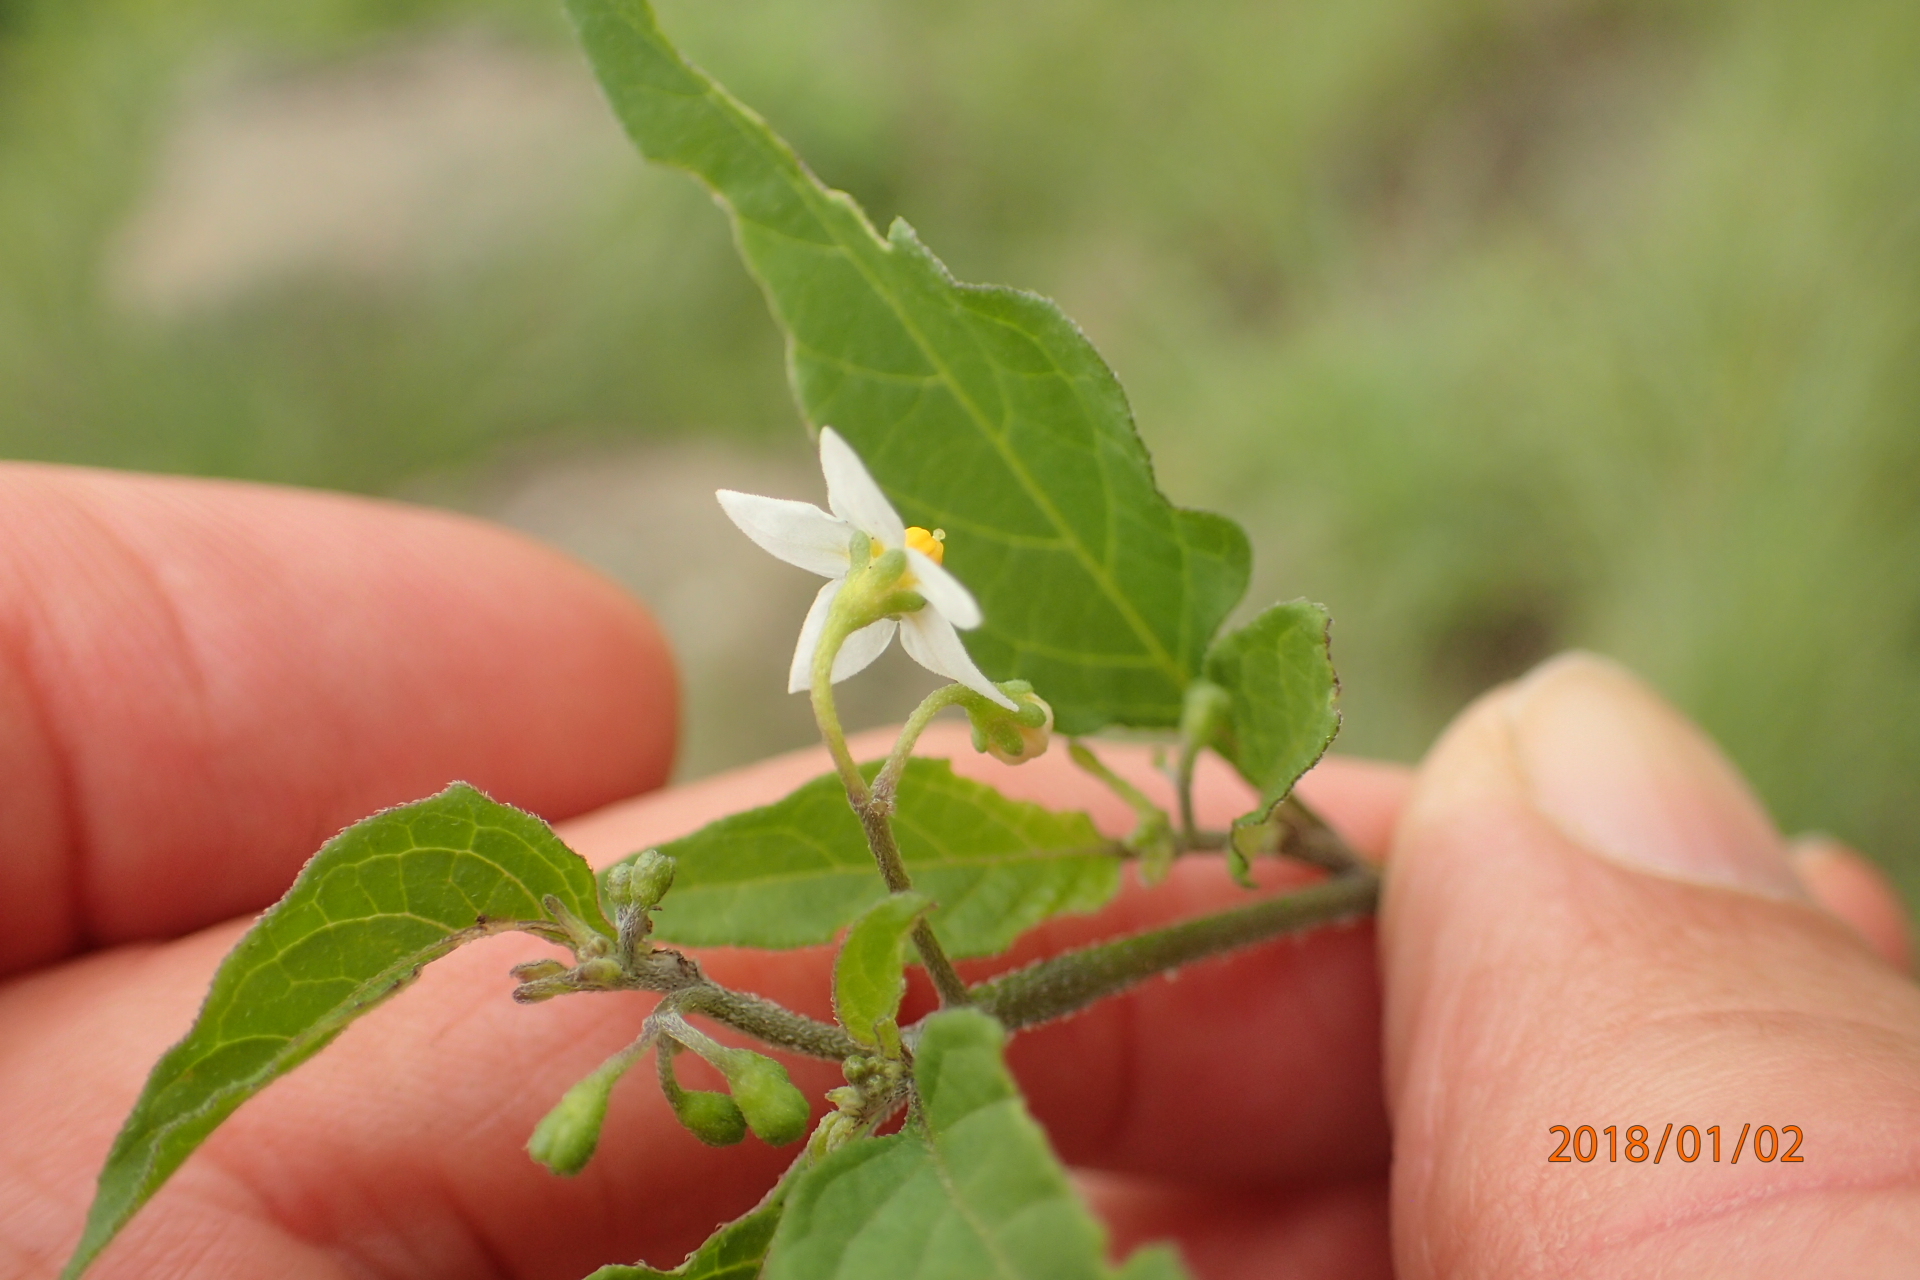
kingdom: Plantae
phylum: Tracheophyta
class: Magnoliopsida
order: Solanales
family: Solanaceae
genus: Solanum
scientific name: Solanum nigrum
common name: Black nightshade
